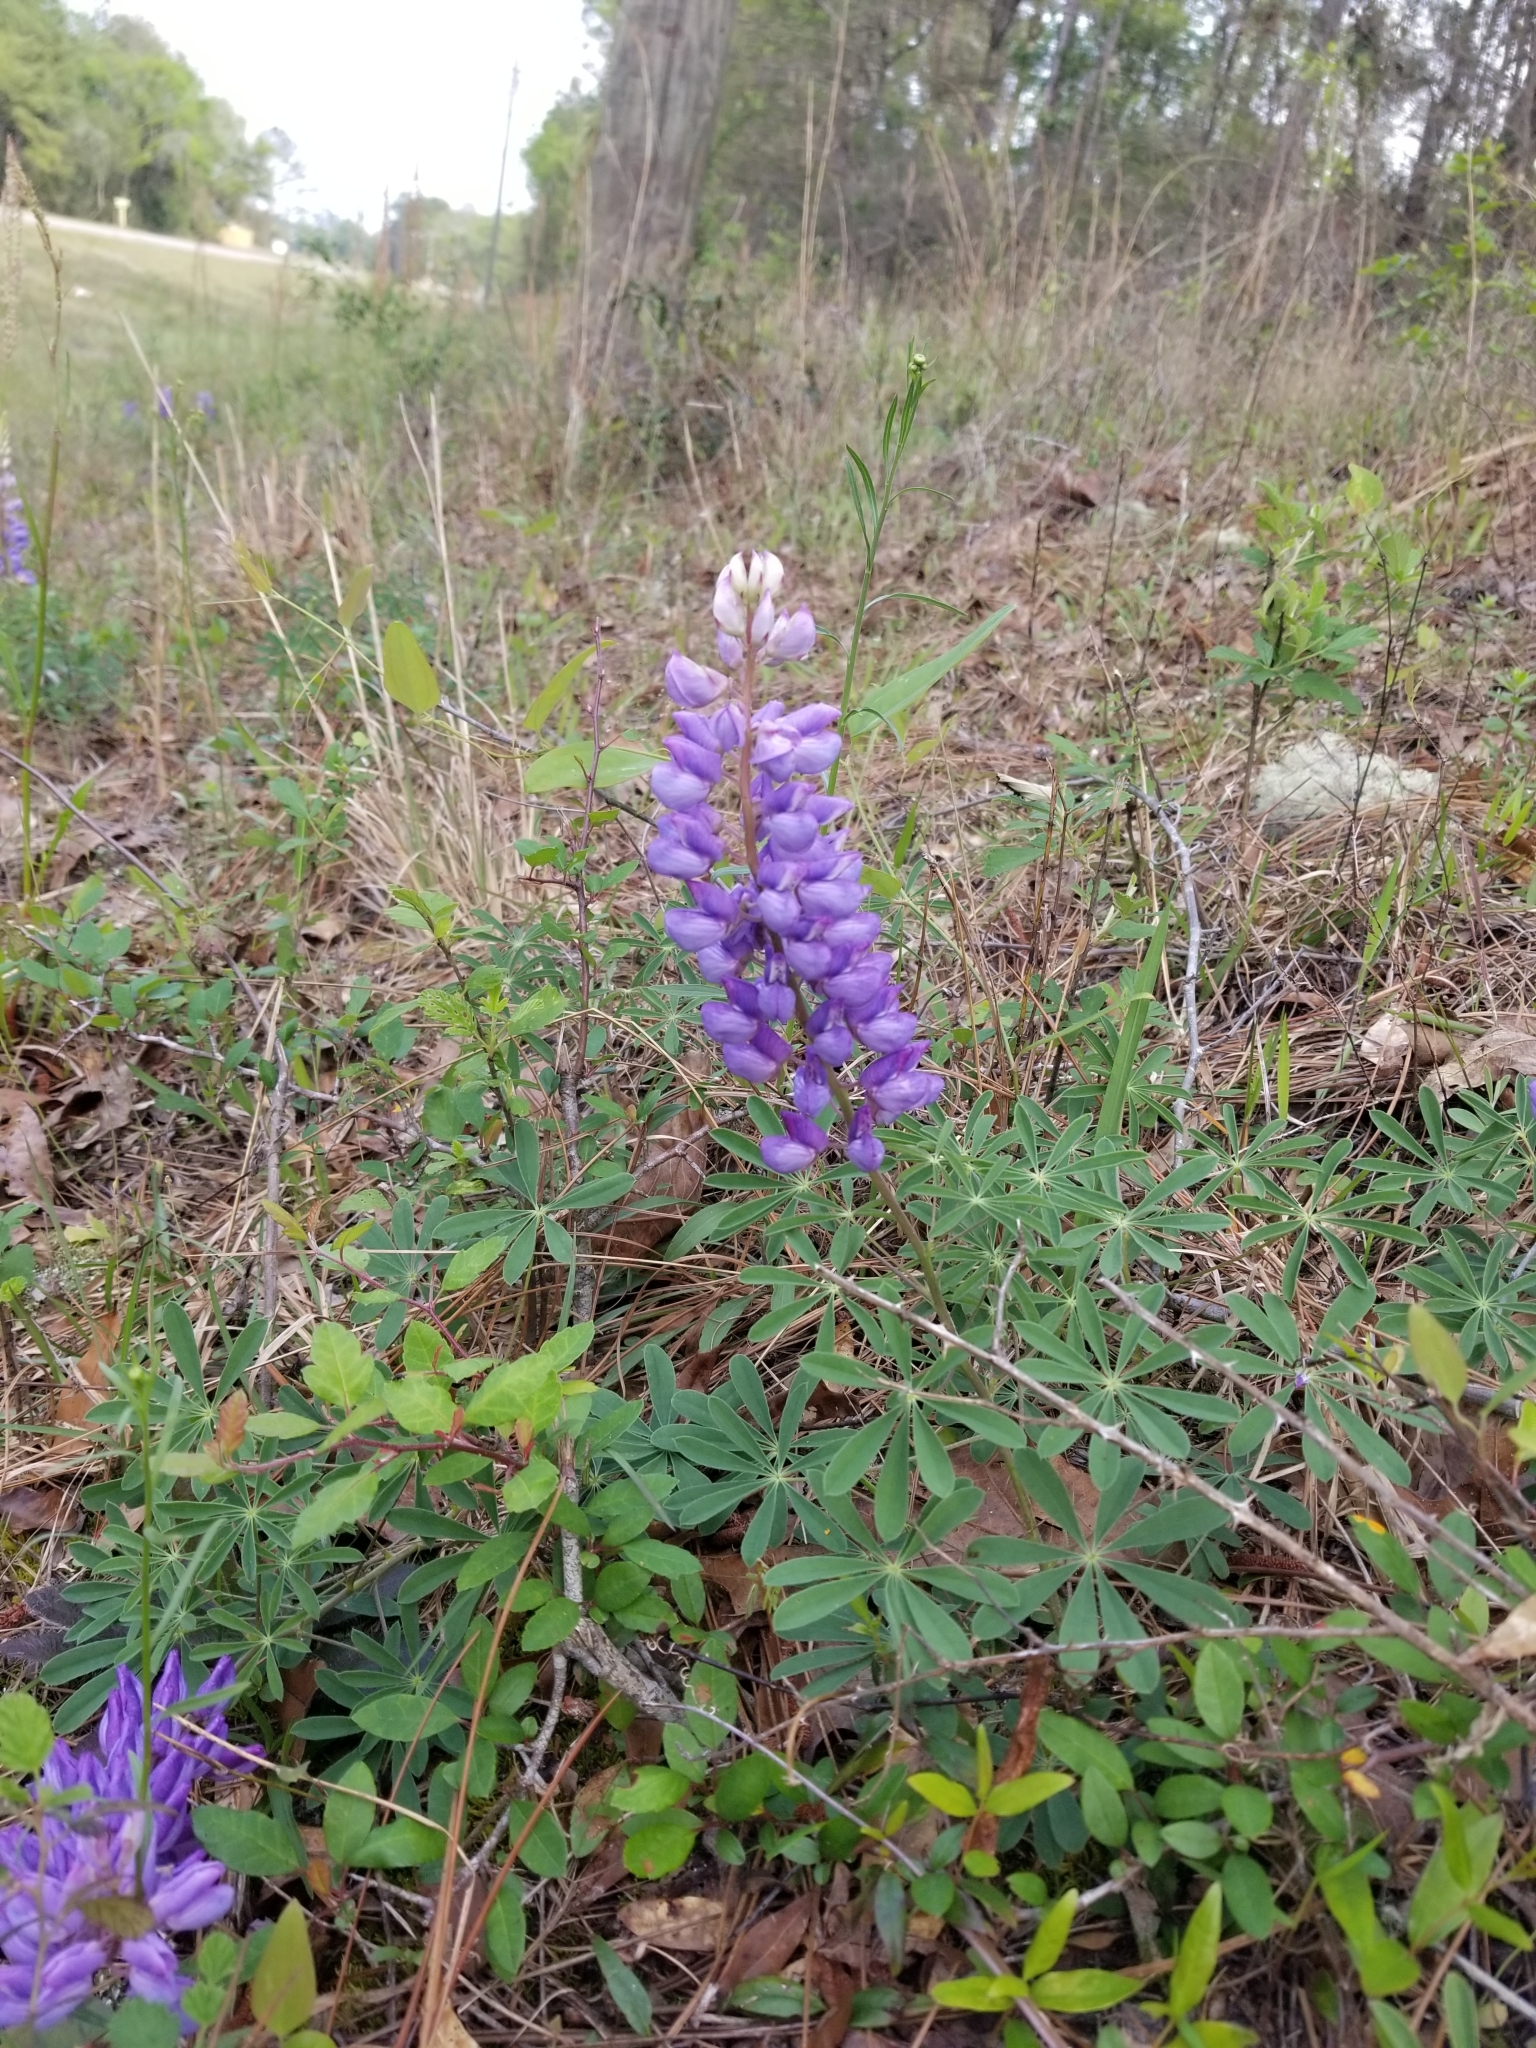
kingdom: Plantae
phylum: Tracheophyta
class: Magnoliopsida
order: Fabales
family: Fabaceae
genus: Lupinus
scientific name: Lupinus perennis
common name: Sundial lupine
